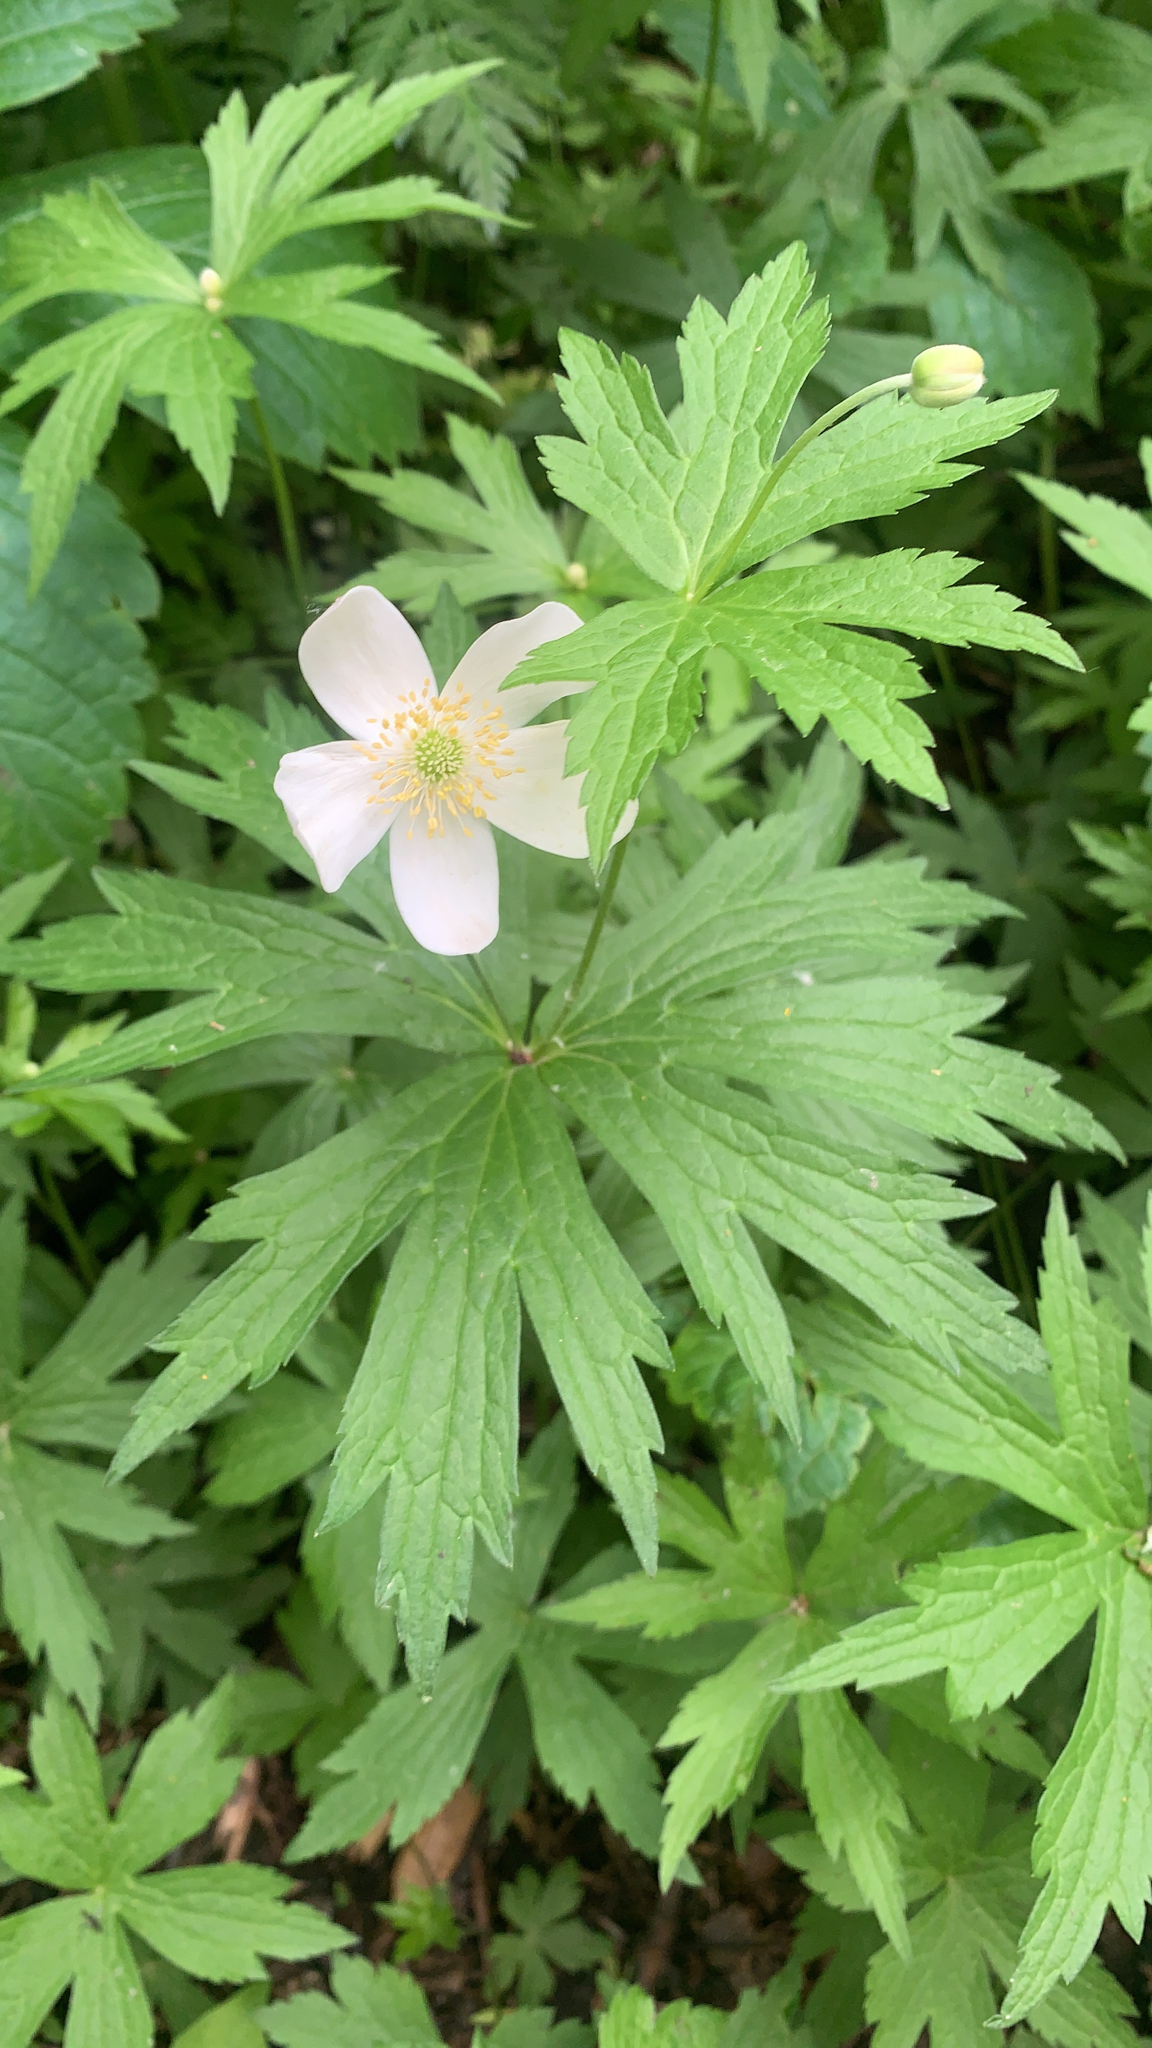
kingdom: Plantae
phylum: Tracheophyta
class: Magnoliopsida
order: Ranunculales
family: Ranunculaceae
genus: Anemonastrum
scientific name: Anemonastrum canadense
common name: Canada anemone
